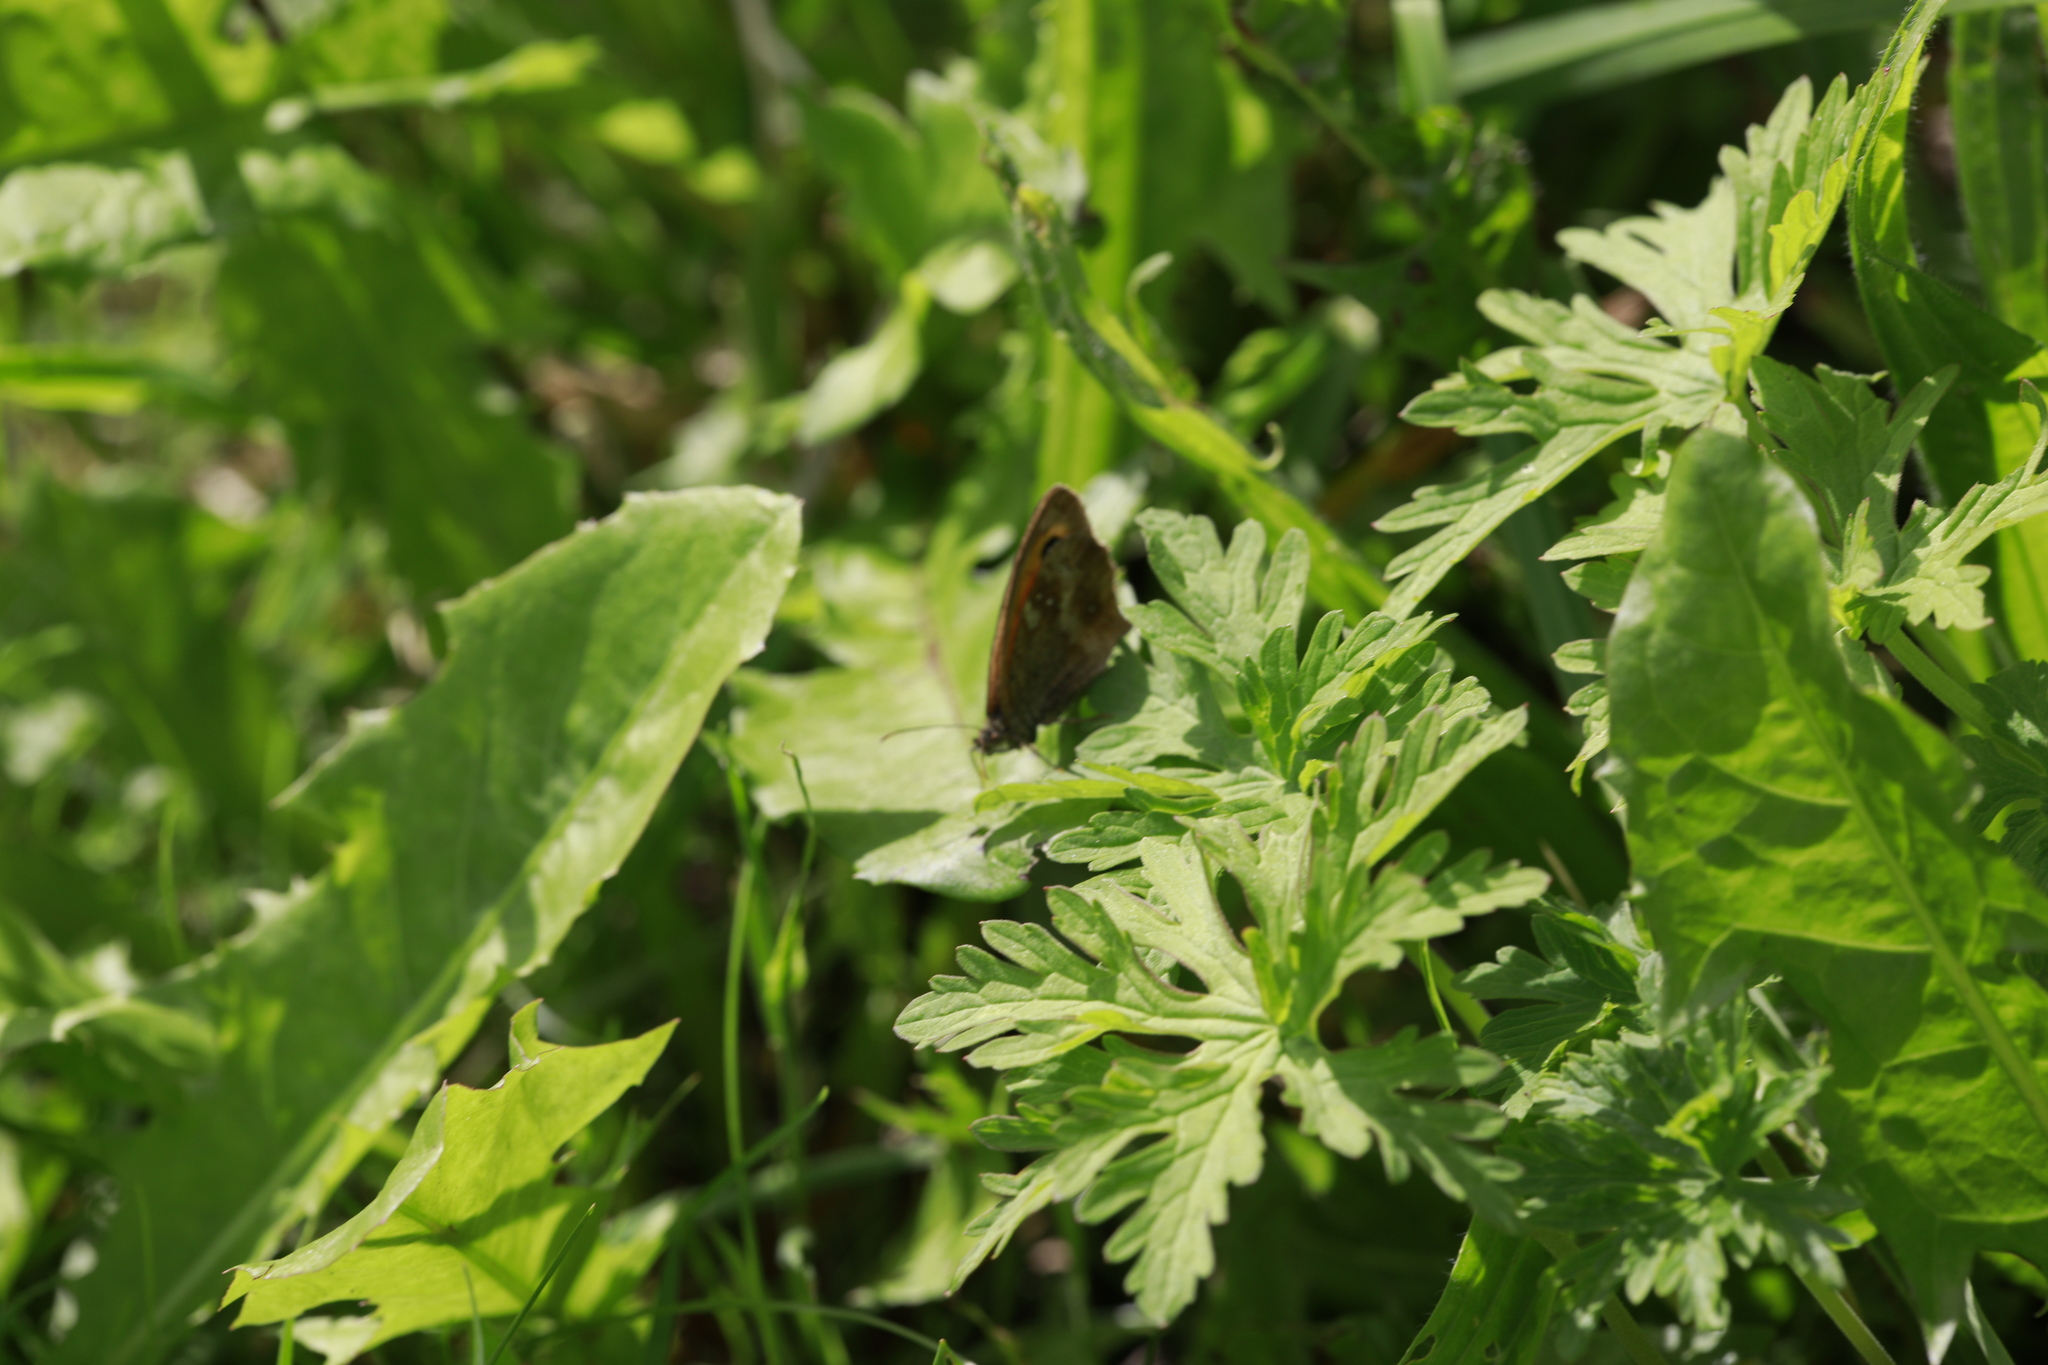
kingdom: Animalia
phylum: Arthropoda
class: Insecta
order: Lepidoptera
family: Nymphalidae
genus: Pyronia
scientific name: Pyronia tithonus
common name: Gatekeeper
